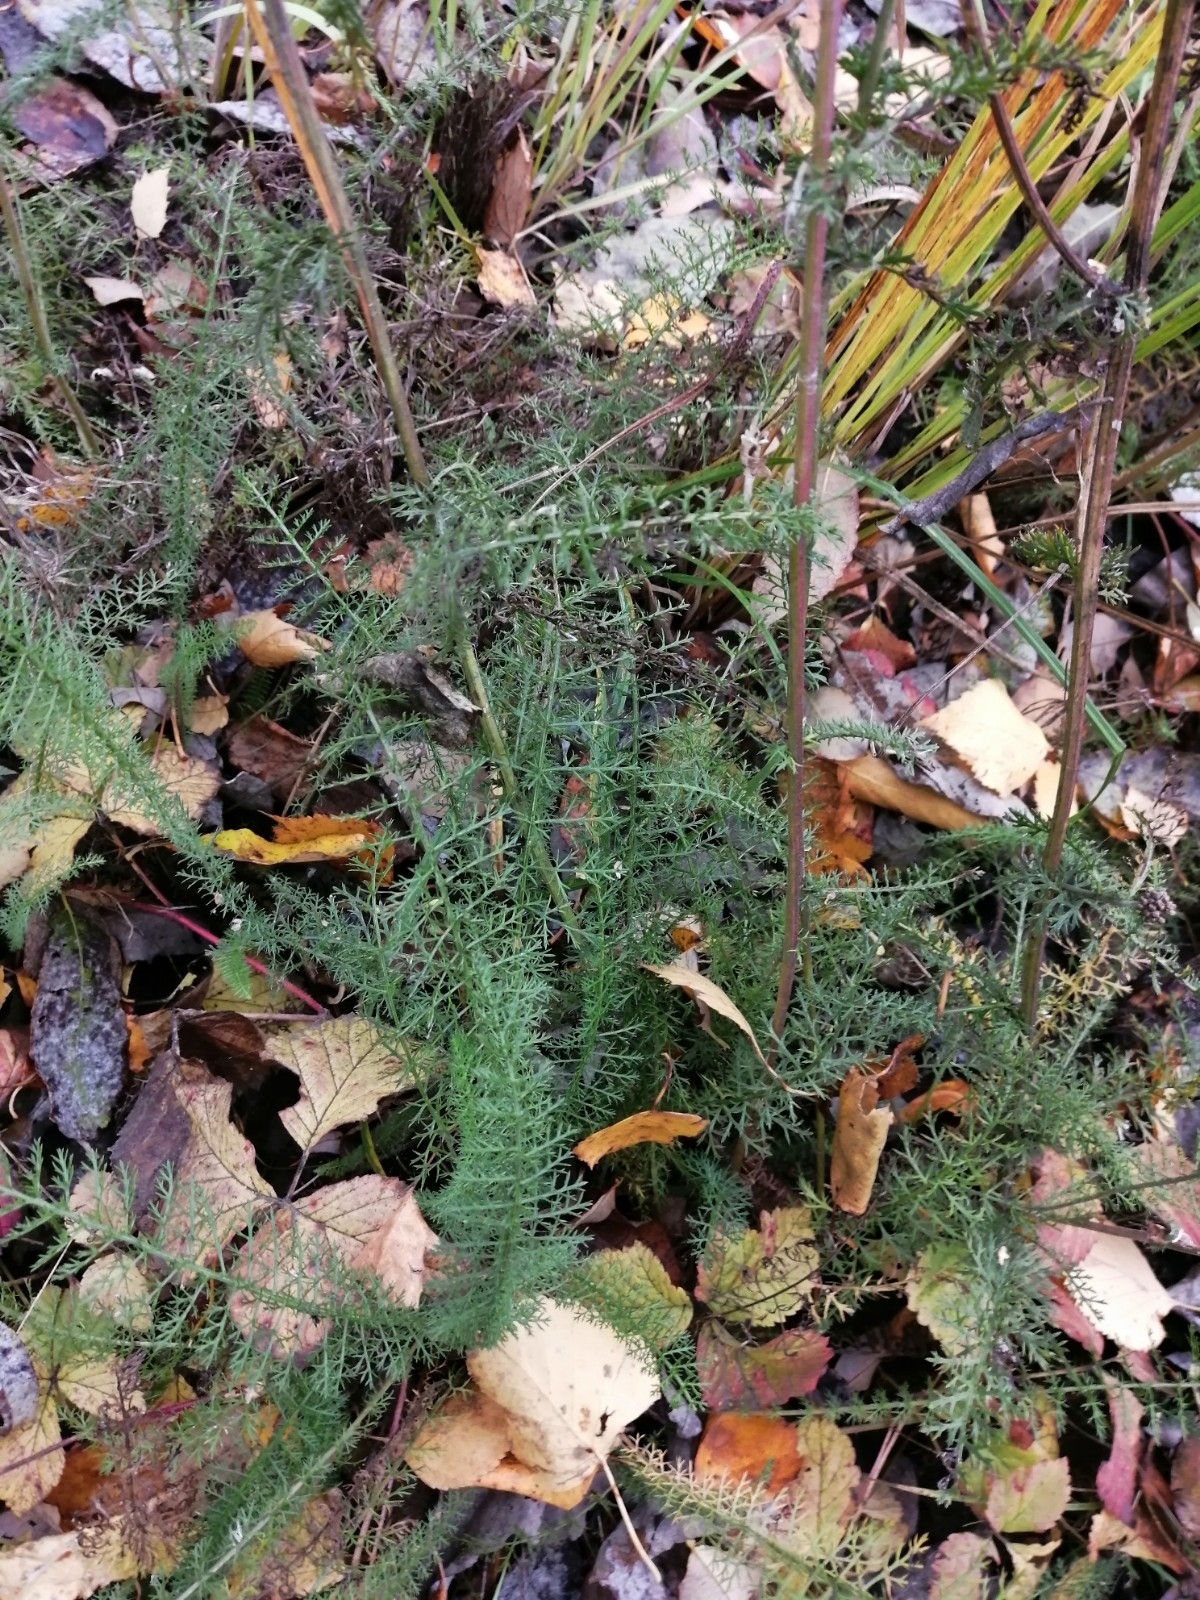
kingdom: Plantae
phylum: Tracheophyta
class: Magnoliopsida
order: Asterales
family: Asteraceae
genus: Achillea
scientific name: Achillea millefolium
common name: Yarrow
